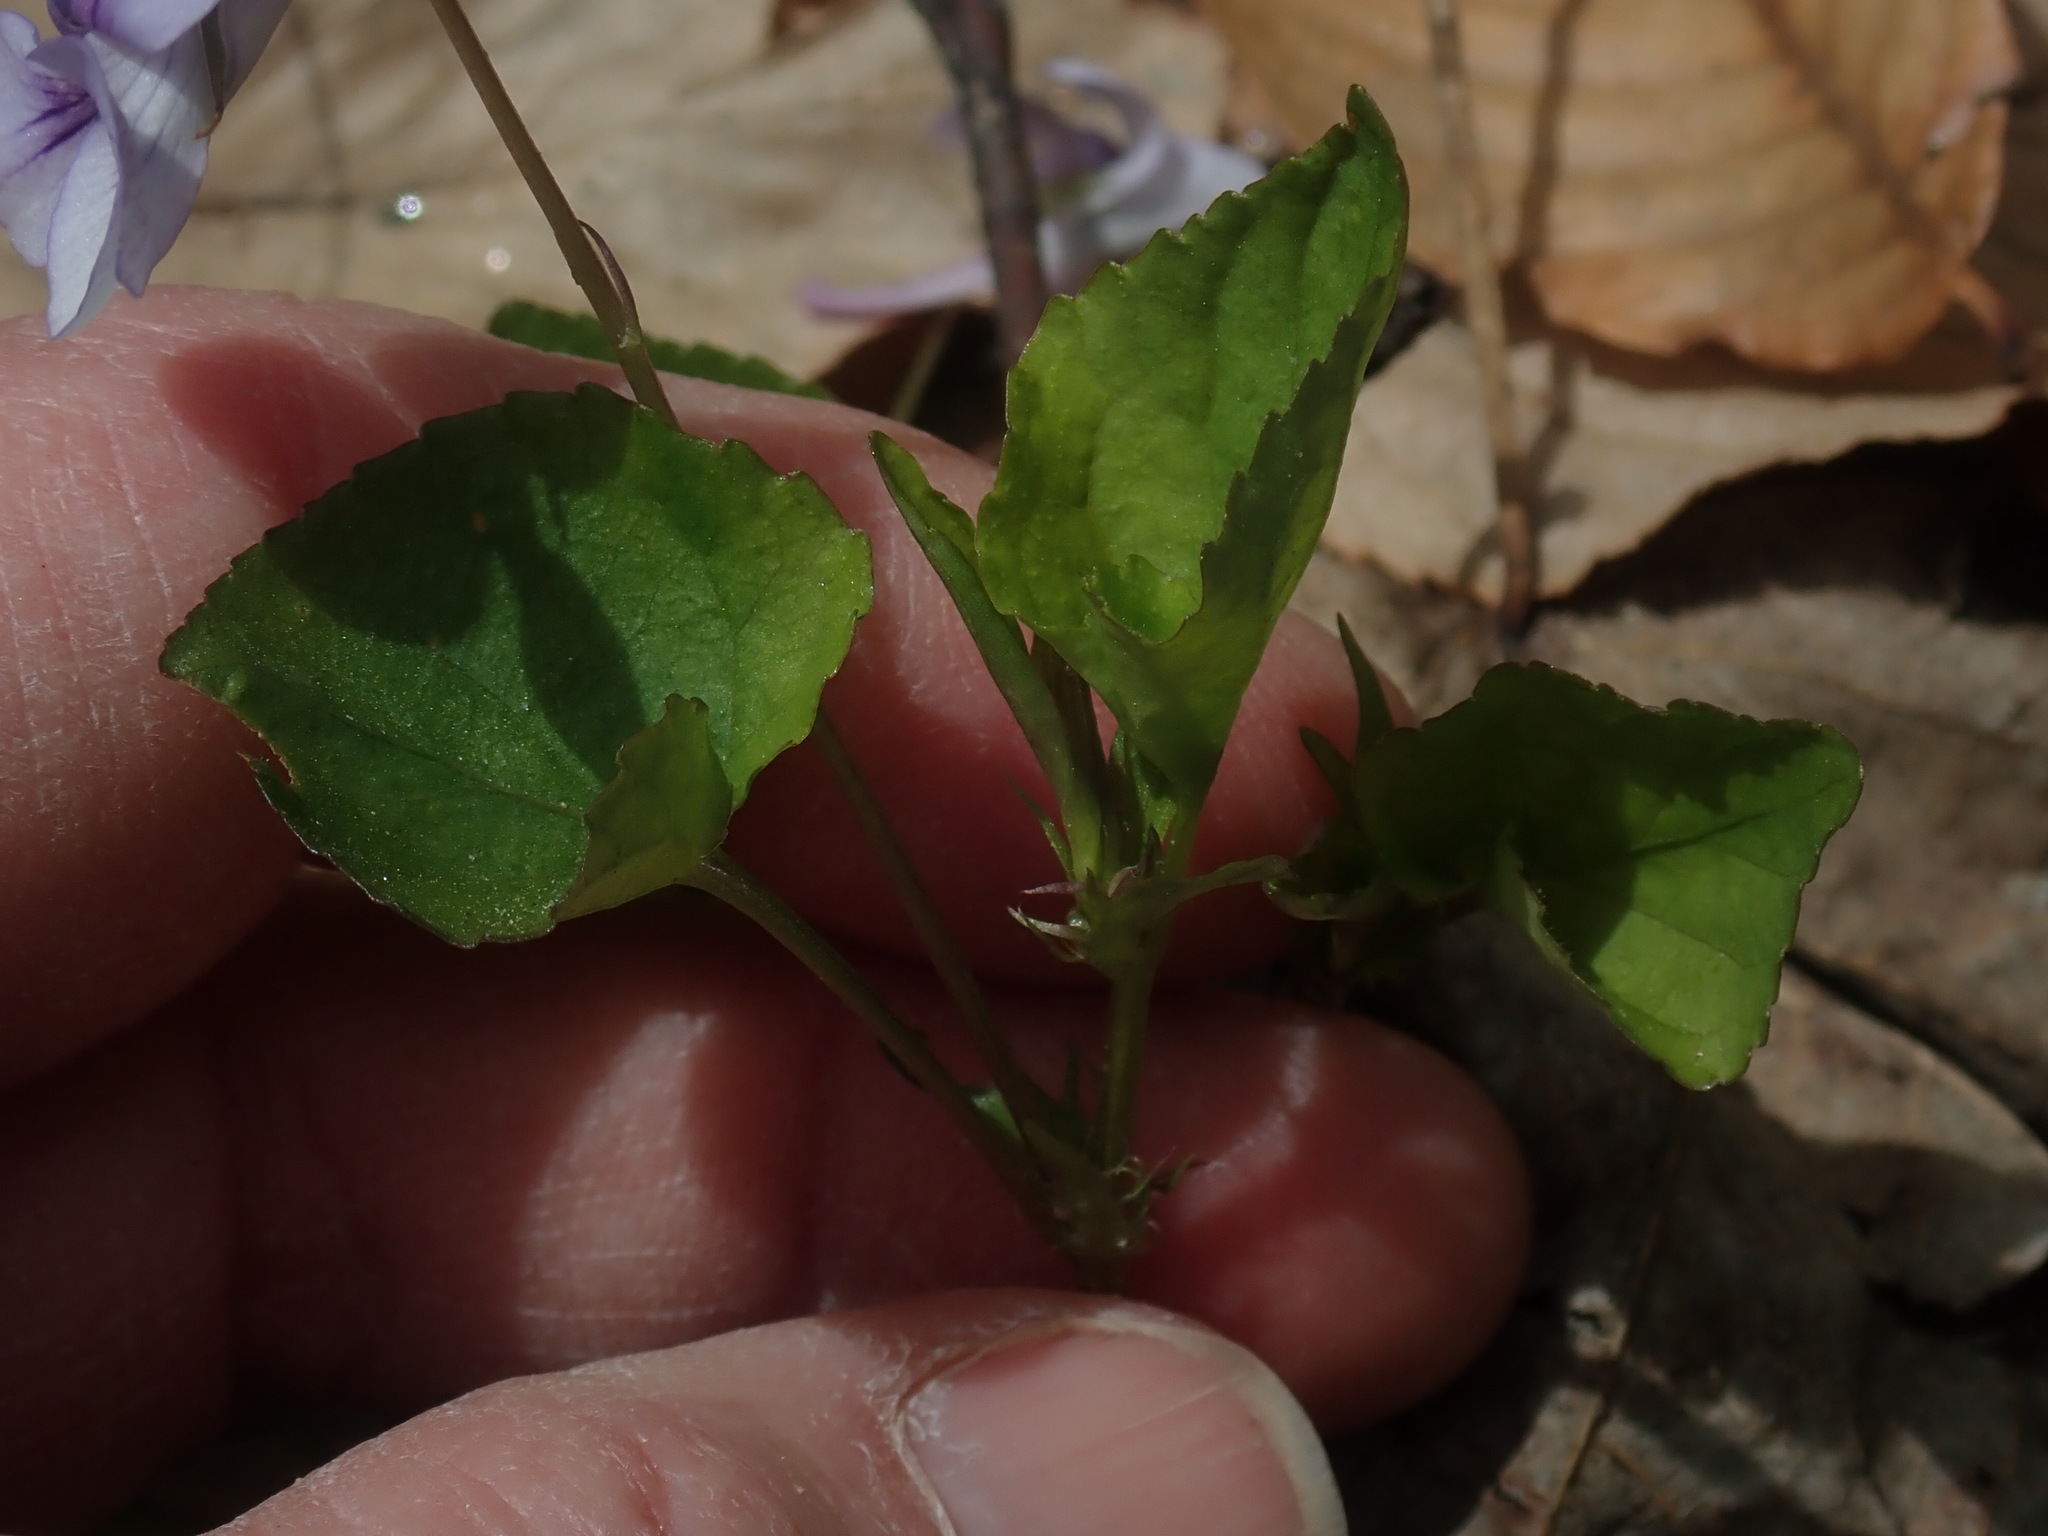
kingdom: Plantae
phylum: Tracheophyta
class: Magnoliopsida
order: Malpighiales
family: Violaceae
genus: Viola
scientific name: Viola rostrata
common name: Long-spur violet
